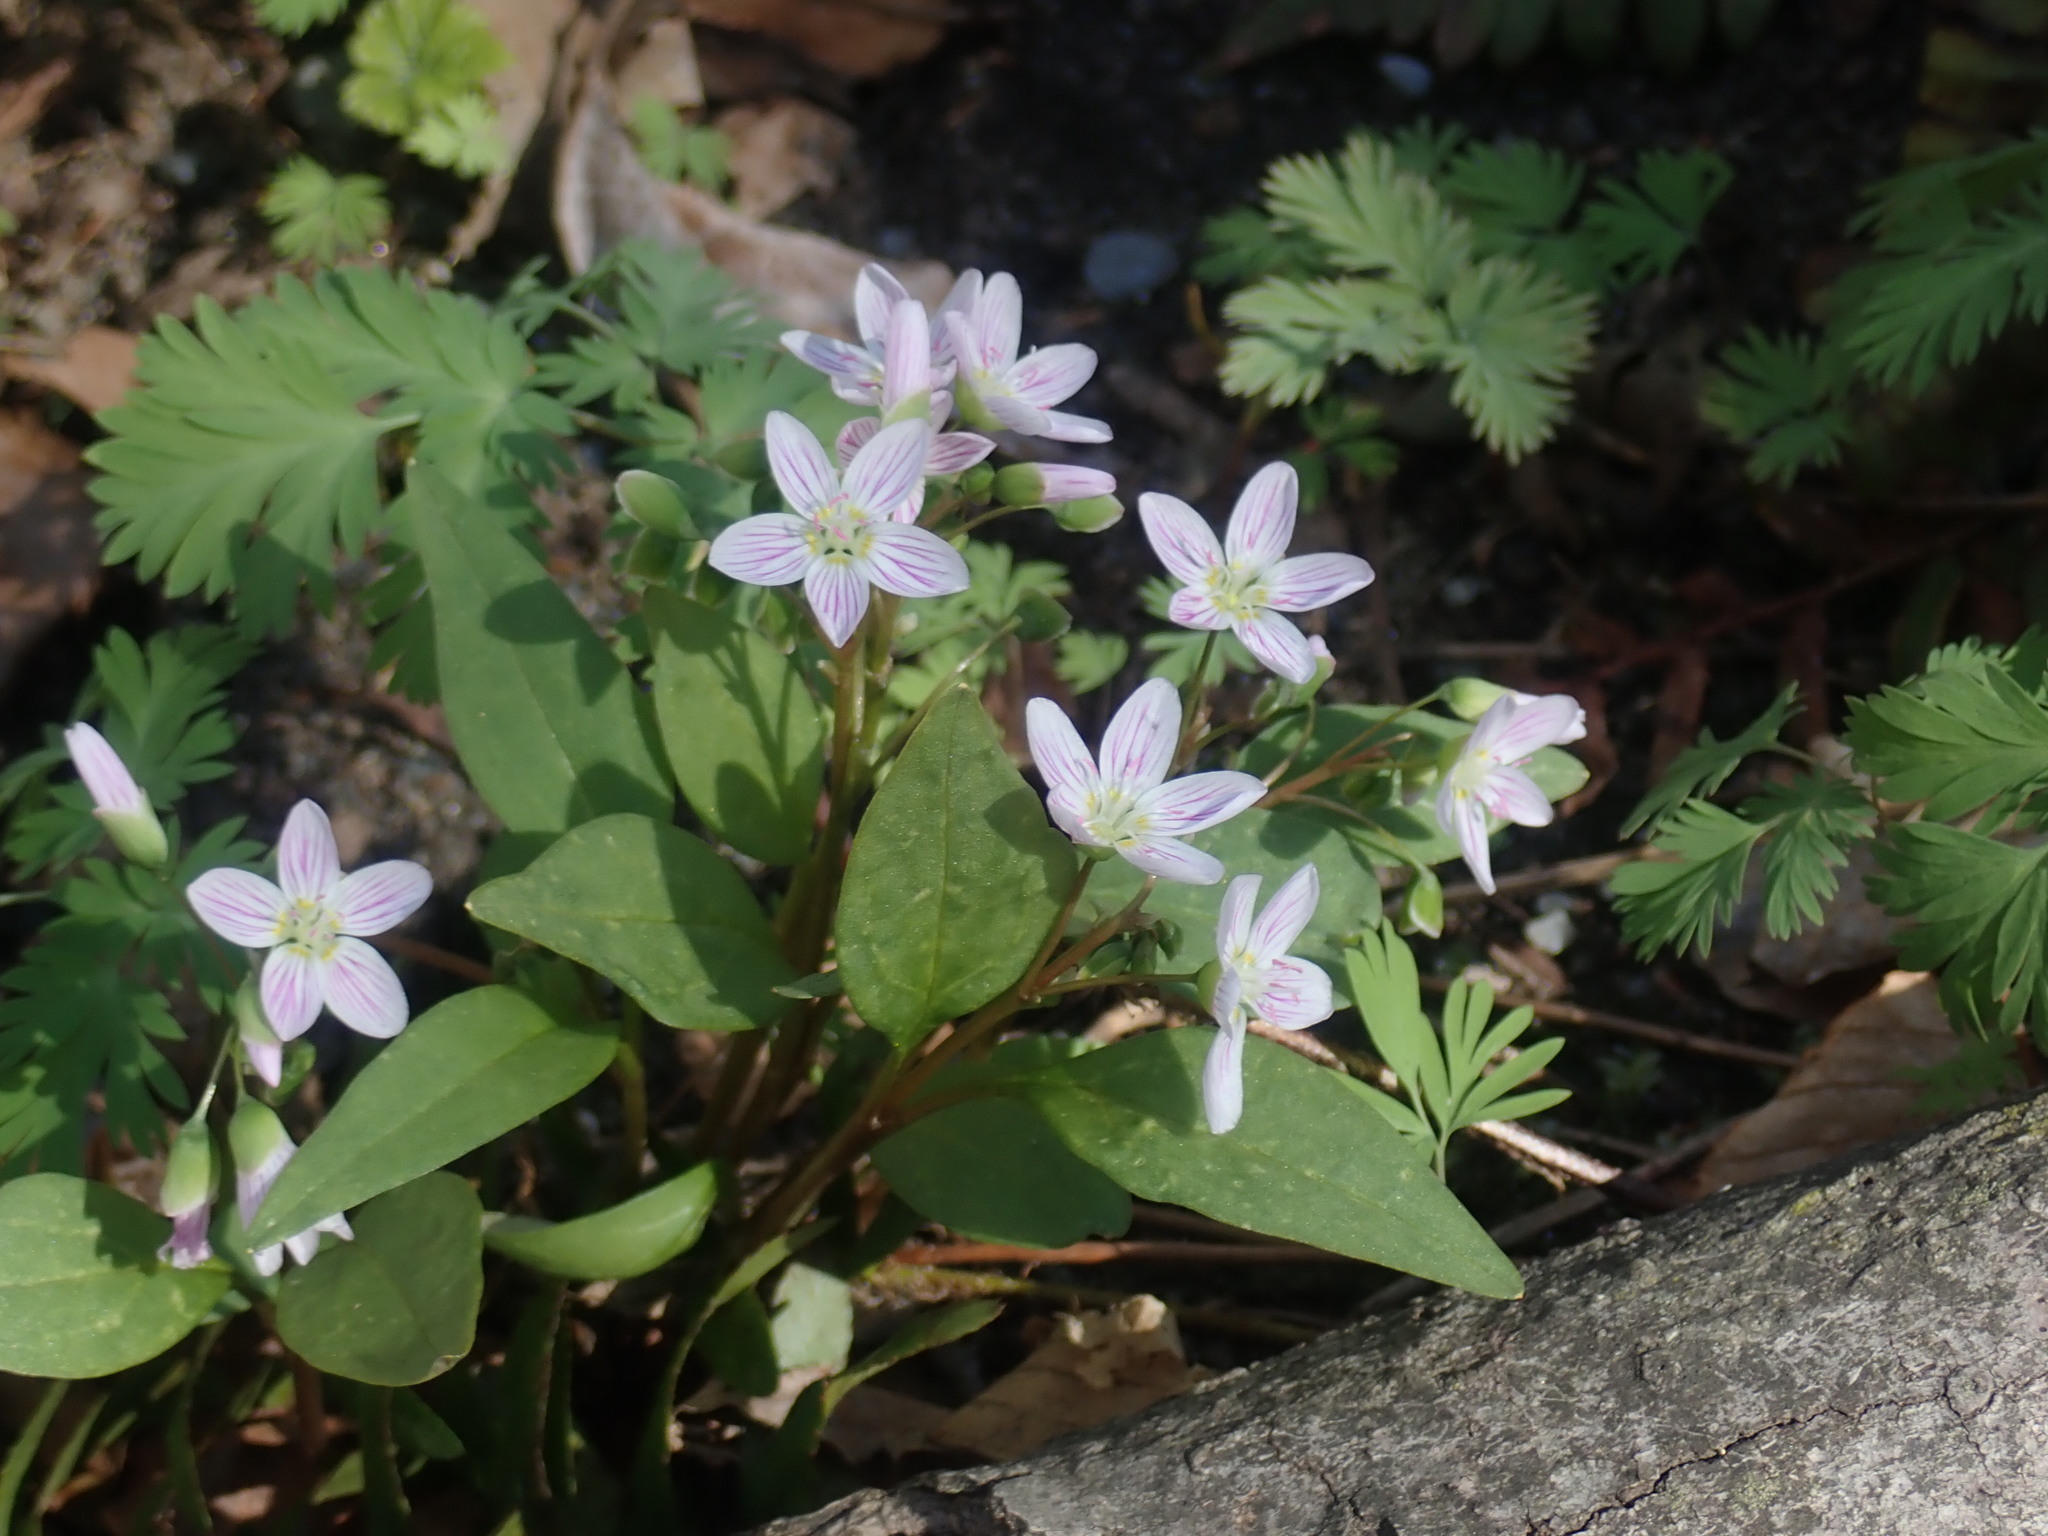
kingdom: Plantae
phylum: Tracheophyta
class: Magnoliopsida
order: Caryophyllales
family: Montiaceae
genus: Claytonia
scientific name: Claytonia caroliniana
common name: Carolina spring beauty
